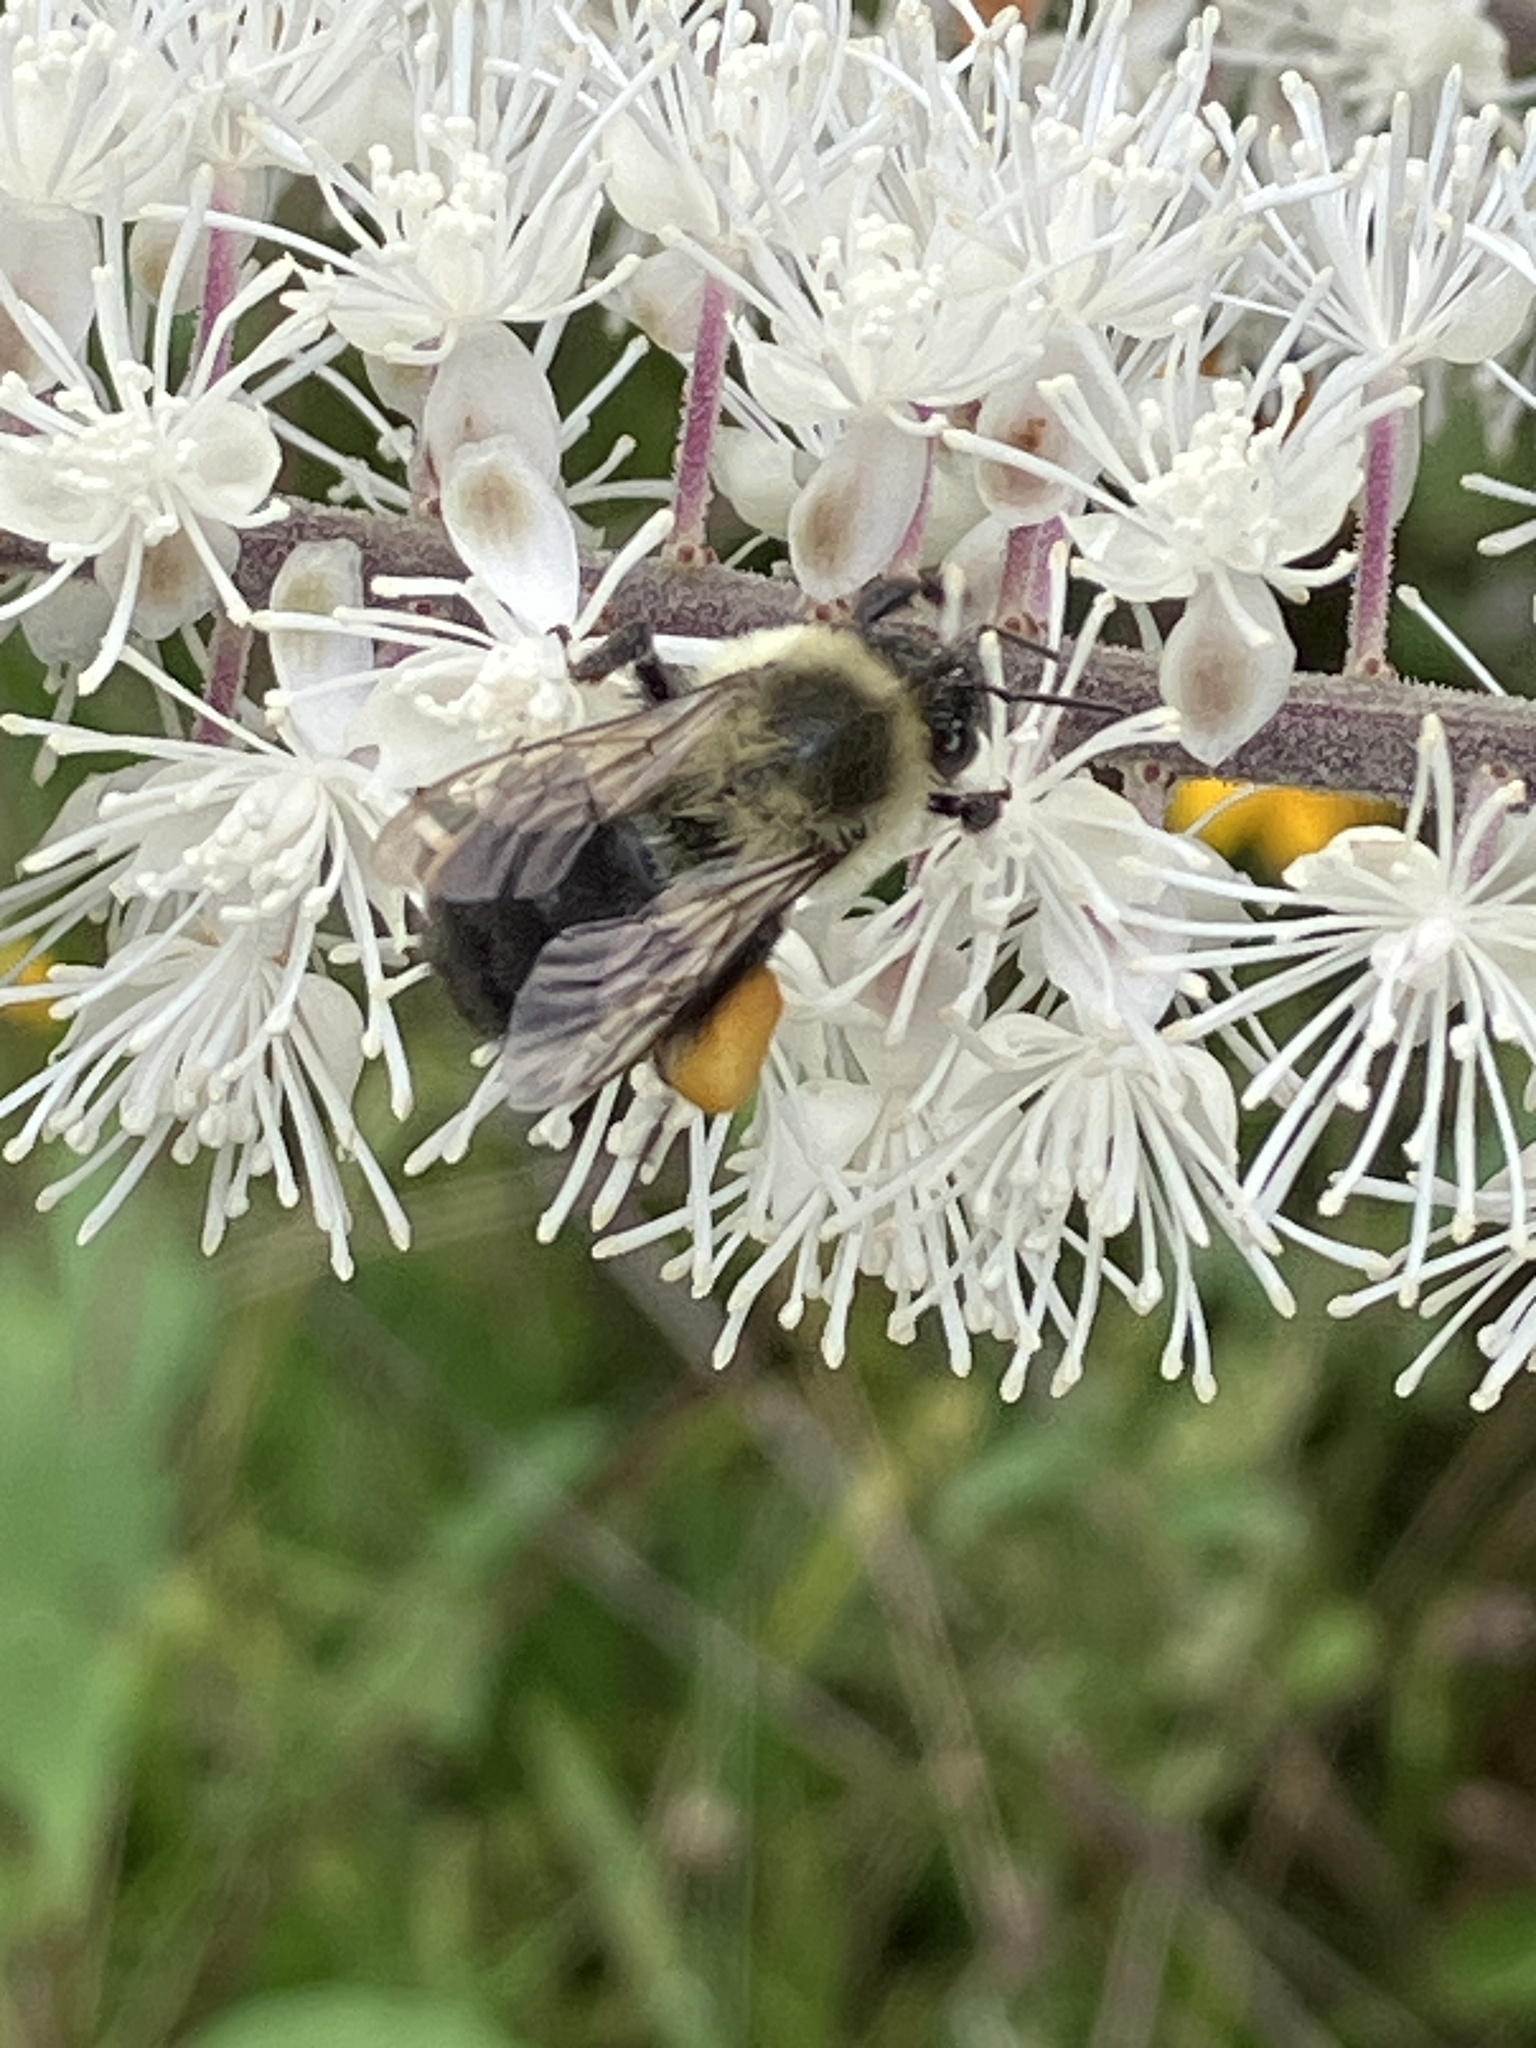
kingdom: Animalia
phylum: Arthropoda
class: Insecta
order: Hymenoptera
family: Apidae
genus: Bombus
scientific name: Bombus impatiens
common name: Common eastern bumble bee
